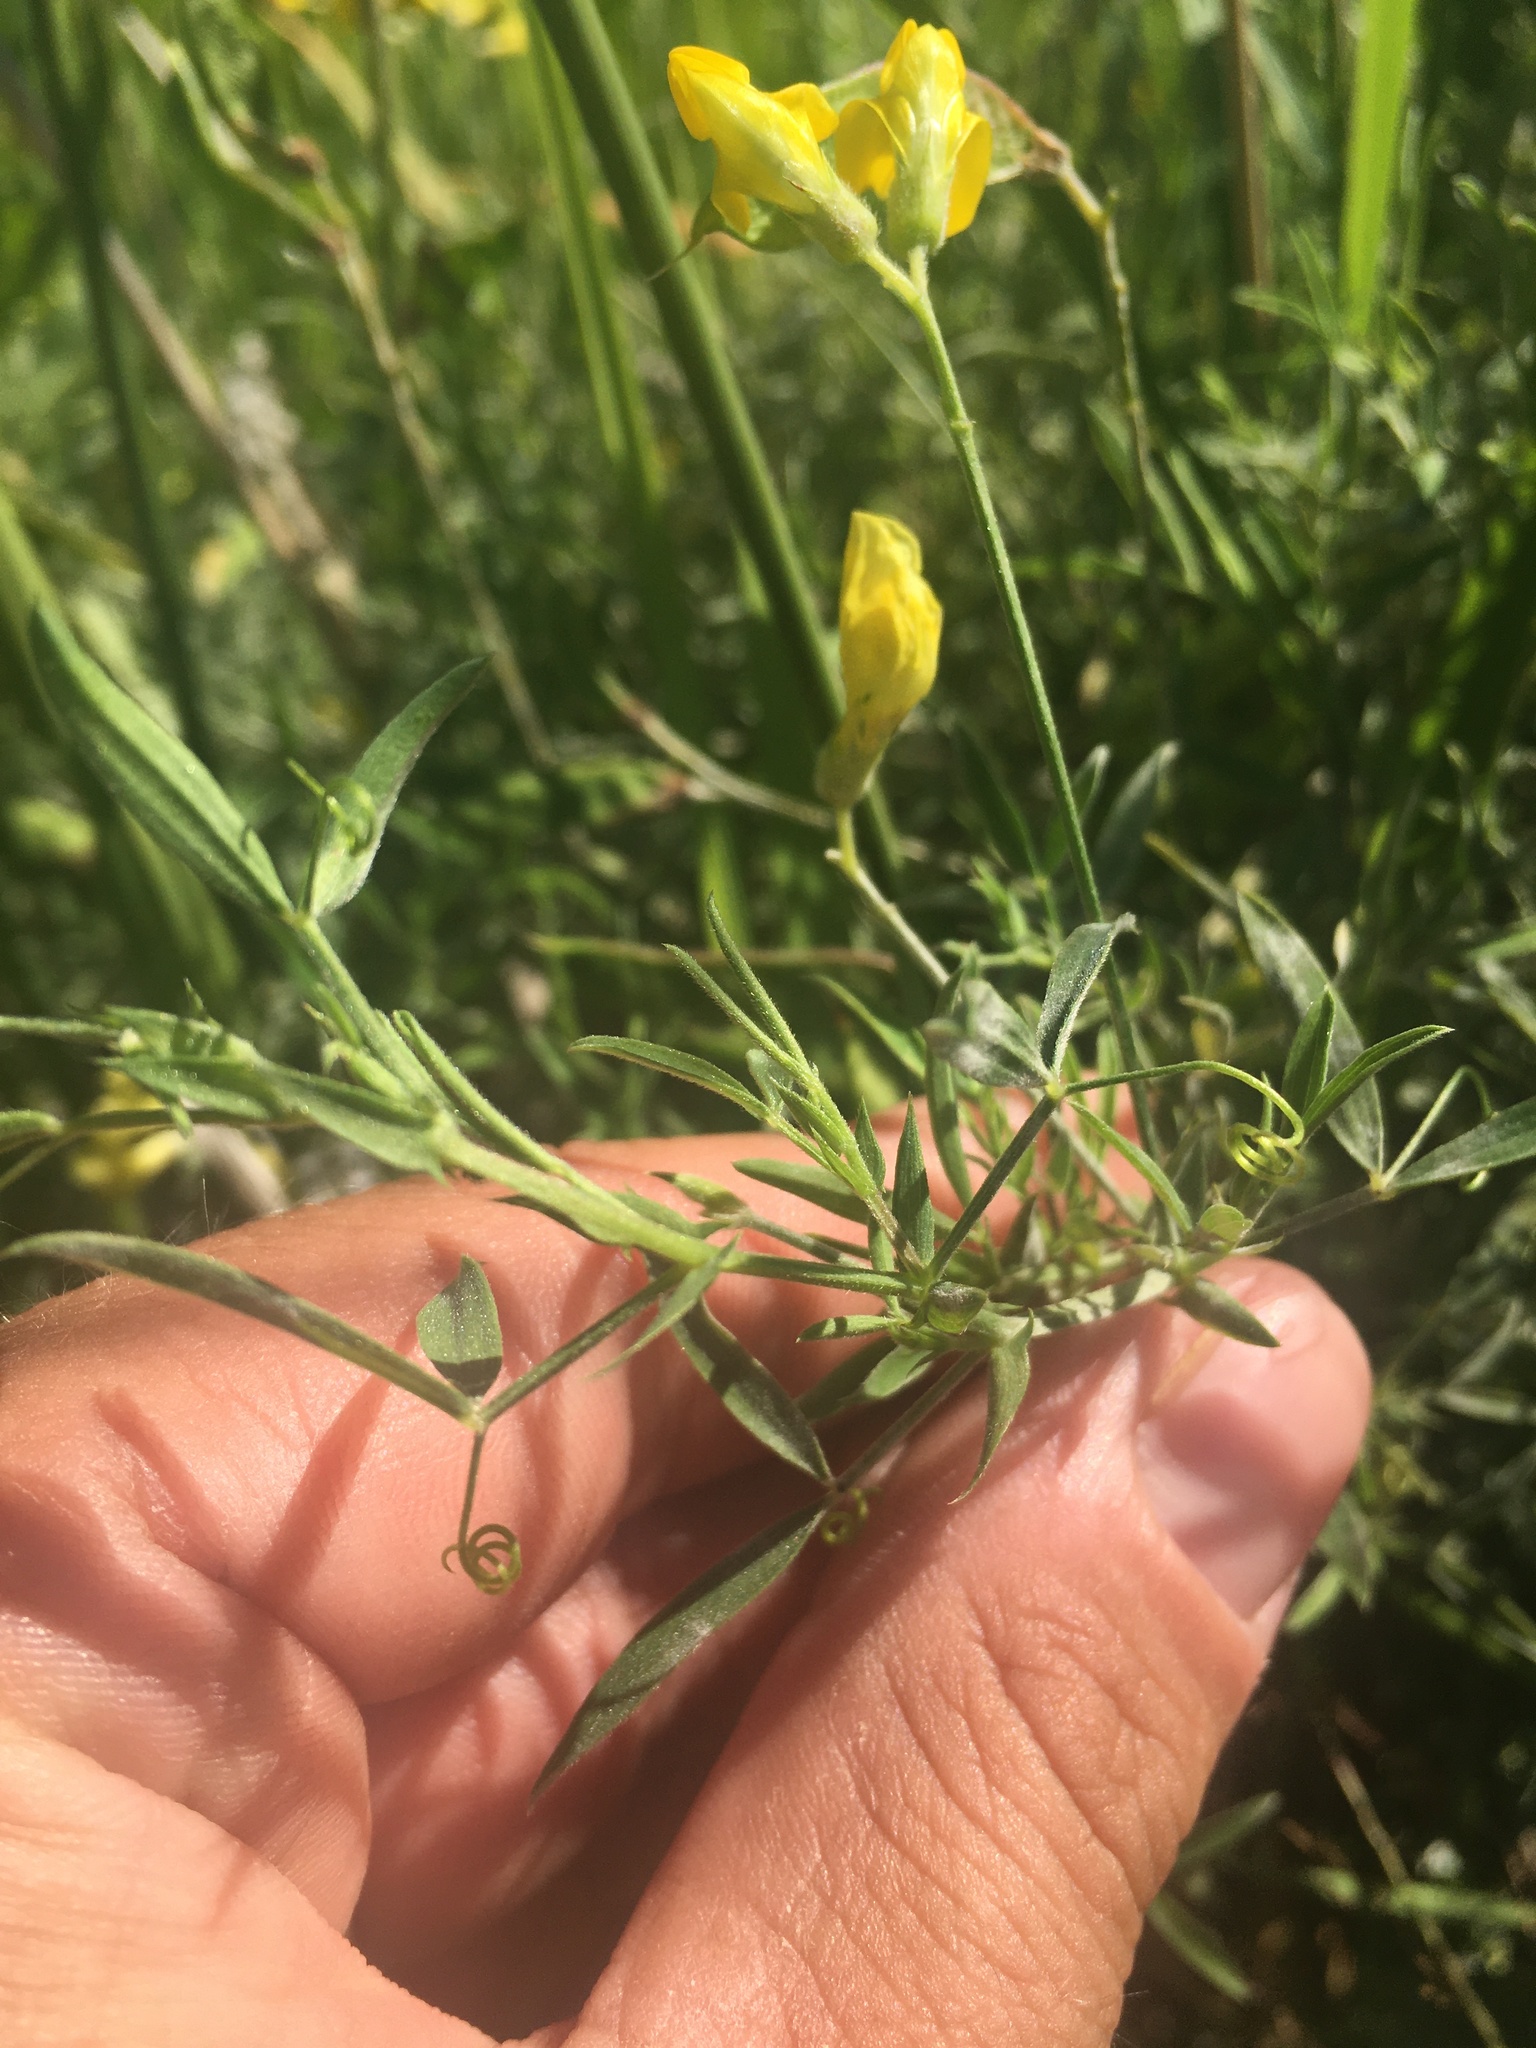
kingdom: Plantae
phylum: Tracheophyta
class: Magnoliopsida
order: Fabales
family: Fabaceae
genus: Lathyrus
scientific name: Lathyrus pratensis
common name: Meadow vetchling
